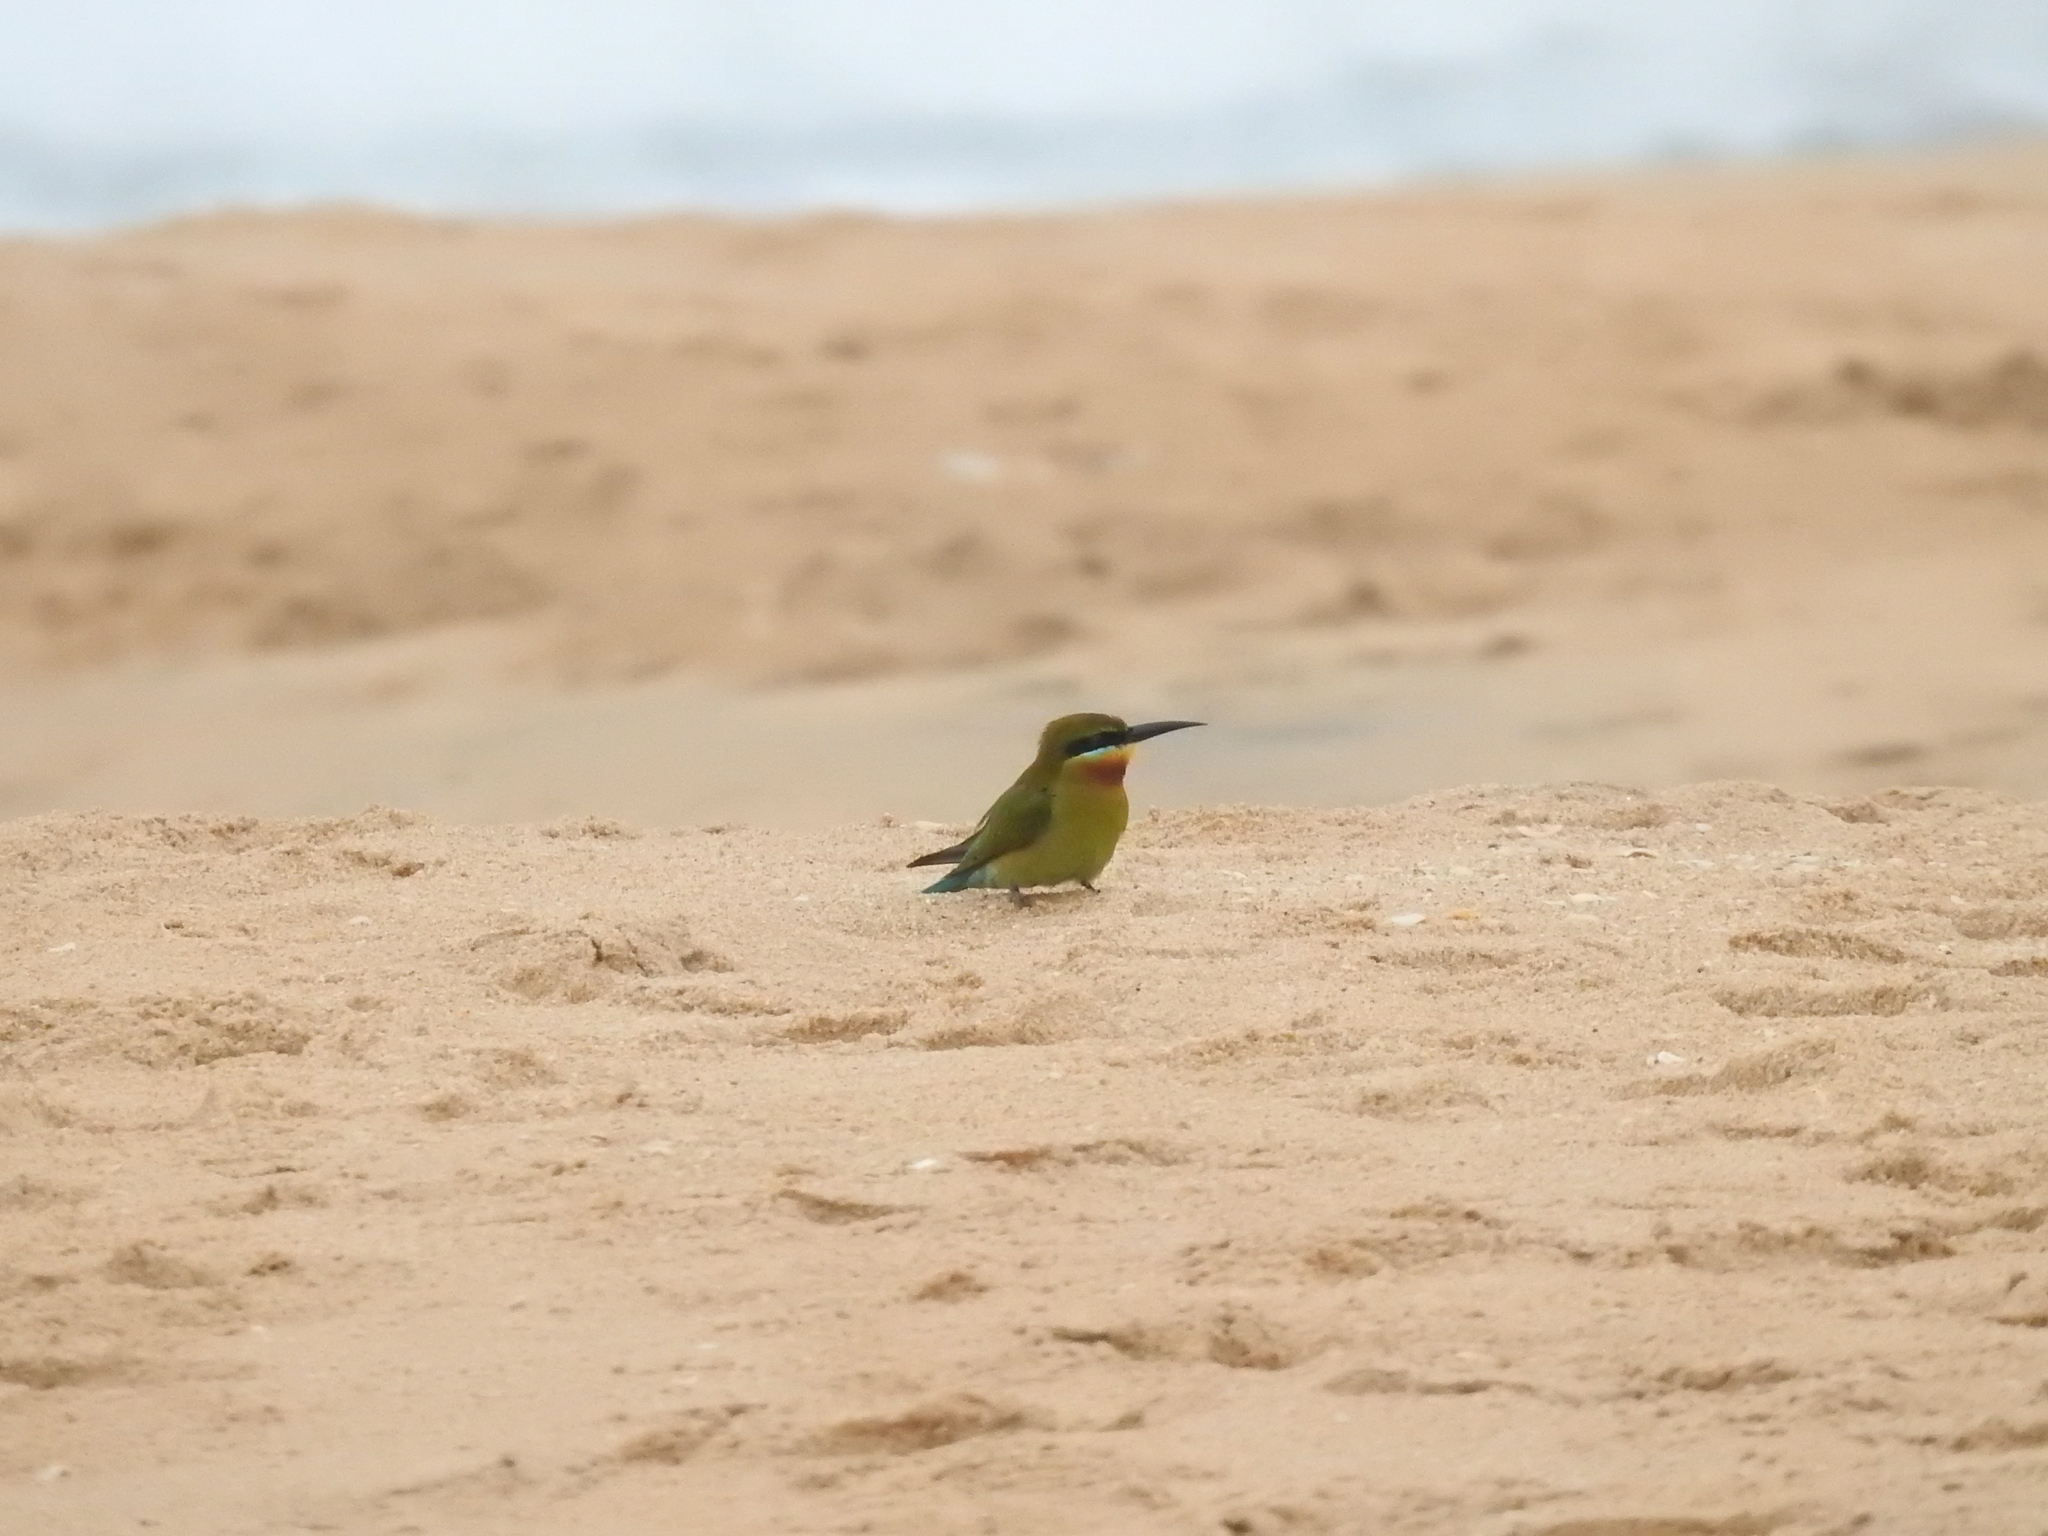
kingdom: Animalia
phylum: Chordata
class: Aves
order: Coraciiformes
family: Meropidae
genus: Merops
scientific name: Merops philippinus
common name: Blue-tailed bee-eater
